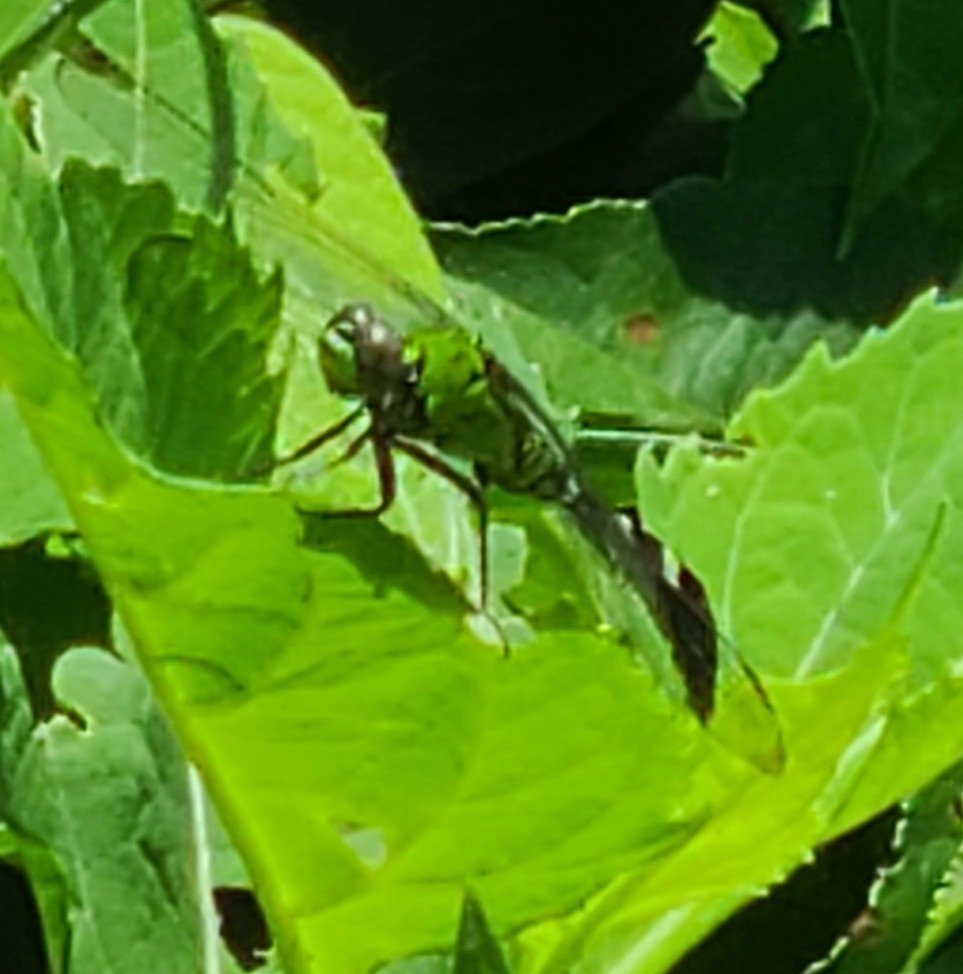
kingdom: Animalia
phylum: Arthropoda
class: Insecta
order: Odonata
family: Libellulidae
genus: Erythemis
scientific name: Erythemis simplicicollis
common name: Eastern pondhawk
